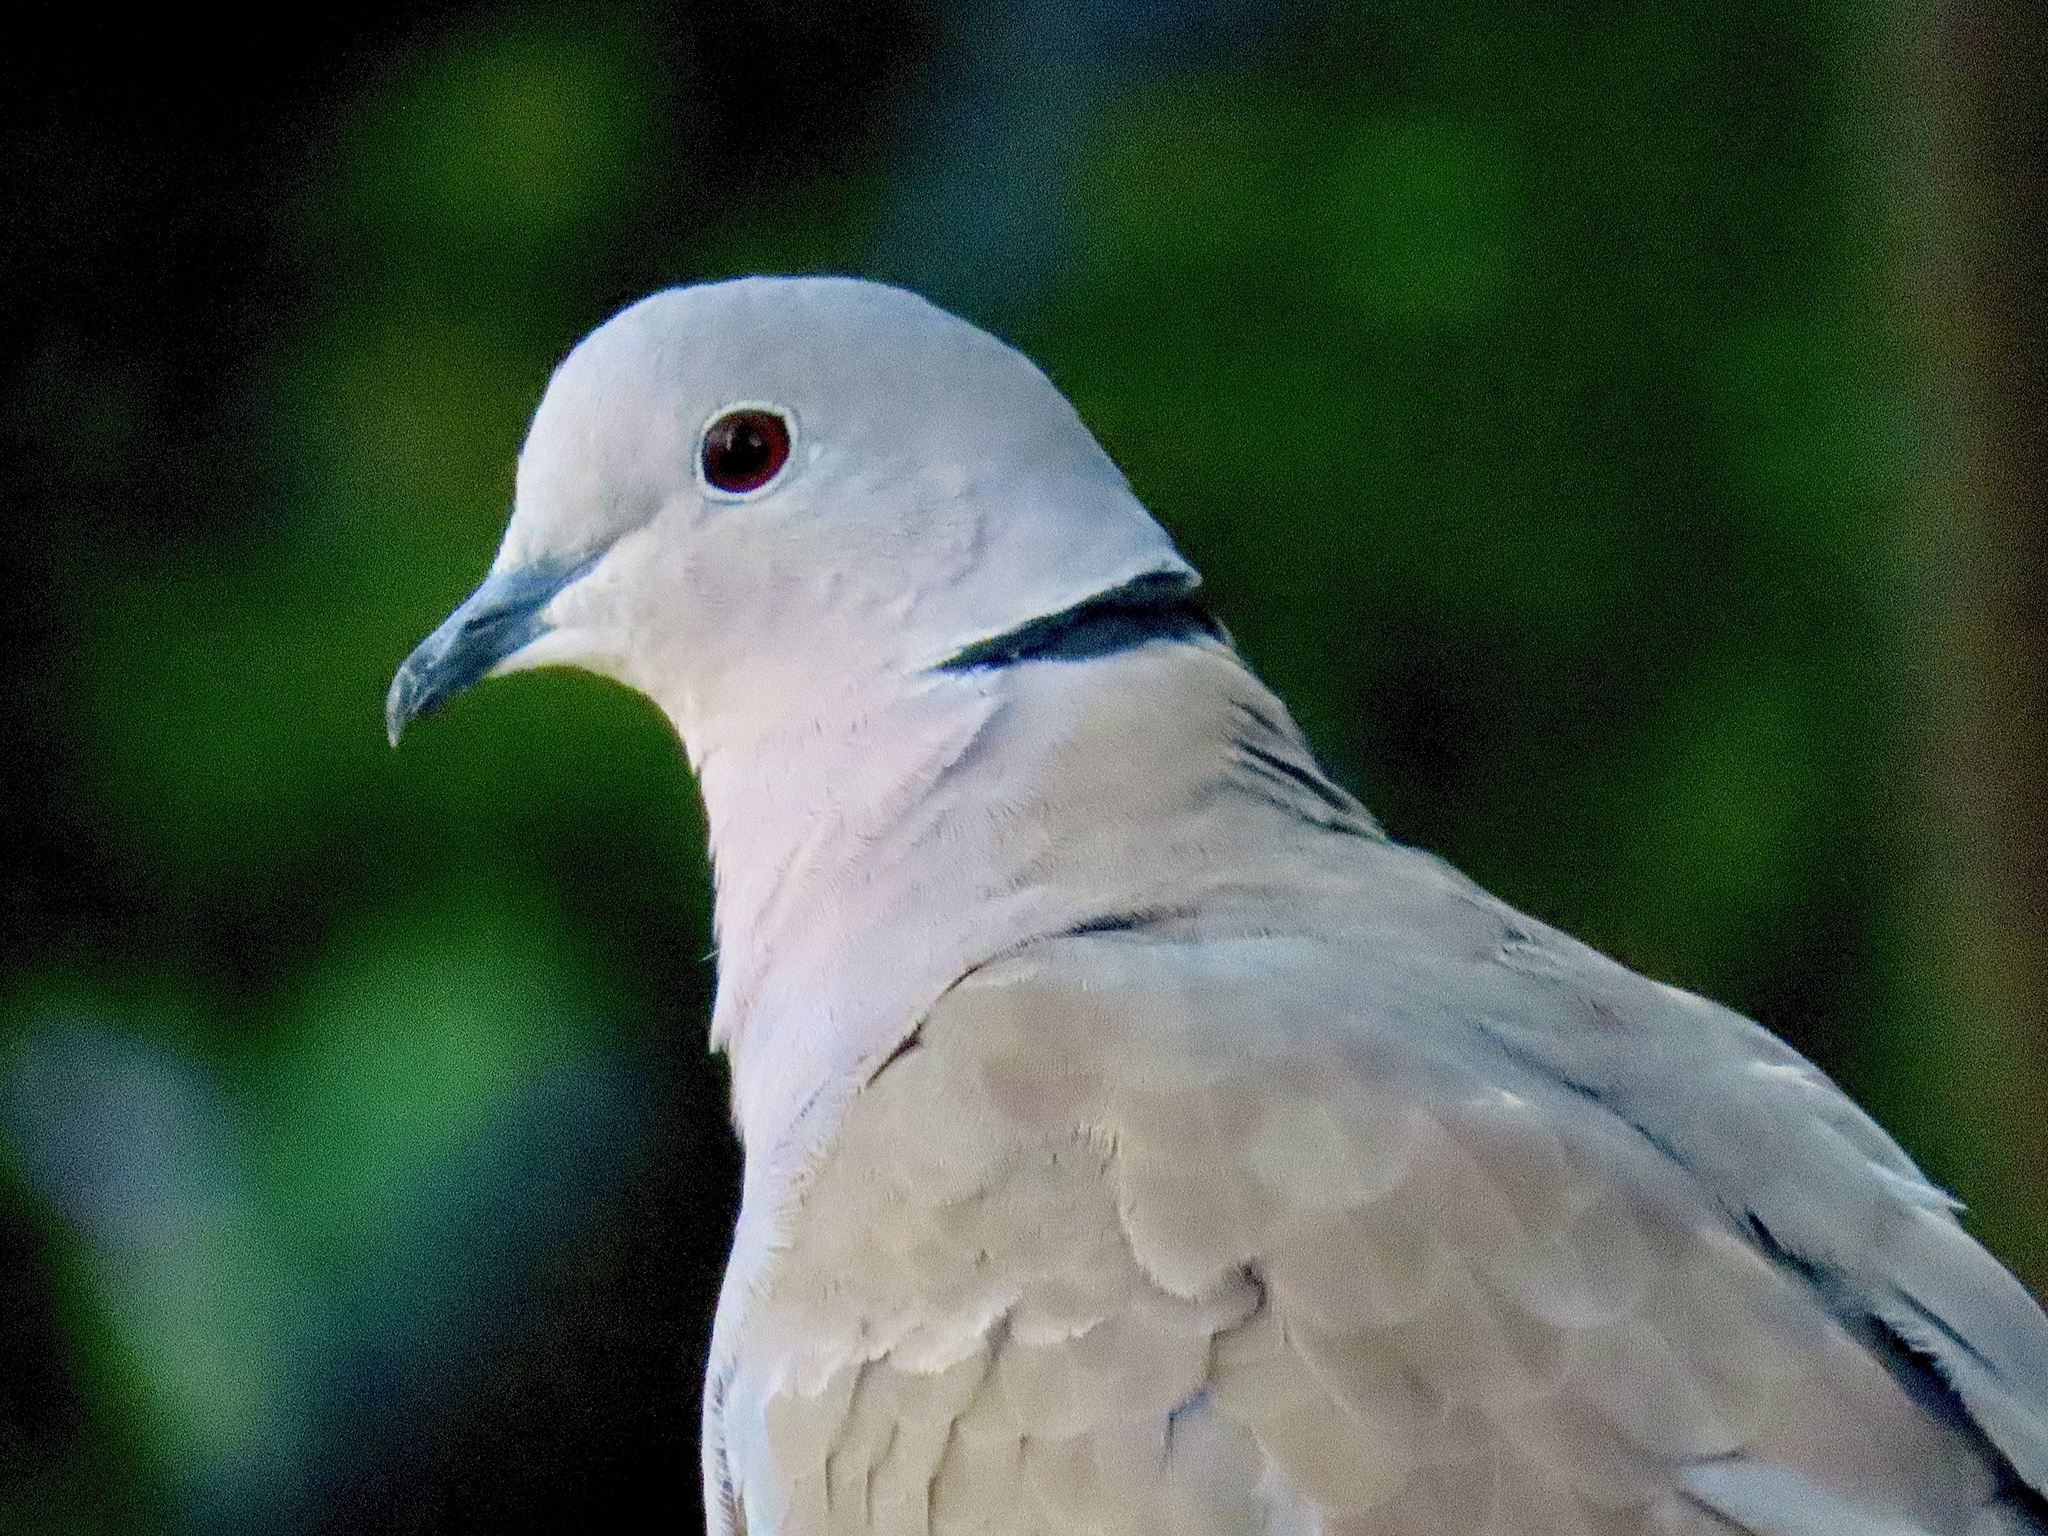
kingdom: Animalia
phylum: Chordata
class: Aves
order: Columbiformes
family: Columbidae
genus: Streptopelia
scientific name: Streptopelia decaocto
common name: Eurasian collared dove
